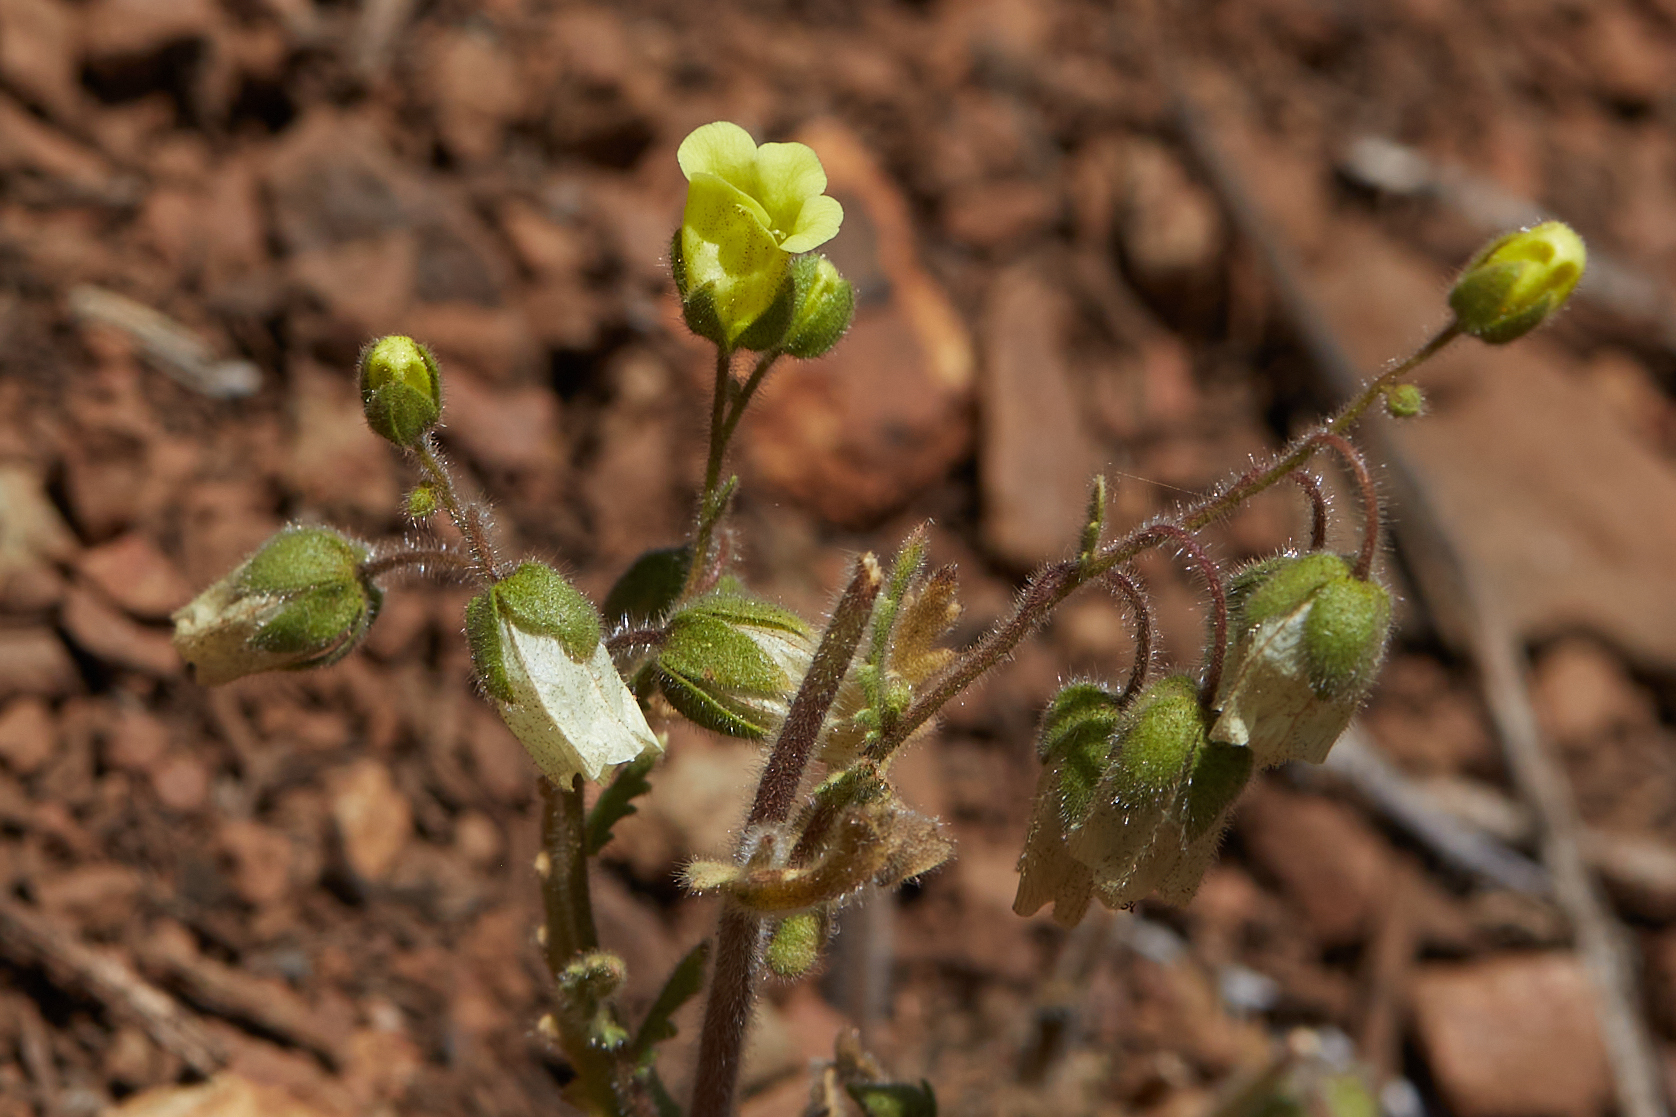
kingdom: Plantae
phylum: Tracheophyta
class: Magnoliopsida
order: Boraginales
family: Hydrophyllaceae
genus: Emmenanthe
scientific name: Emmenanthe penduliflora
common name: Whispering-bells
